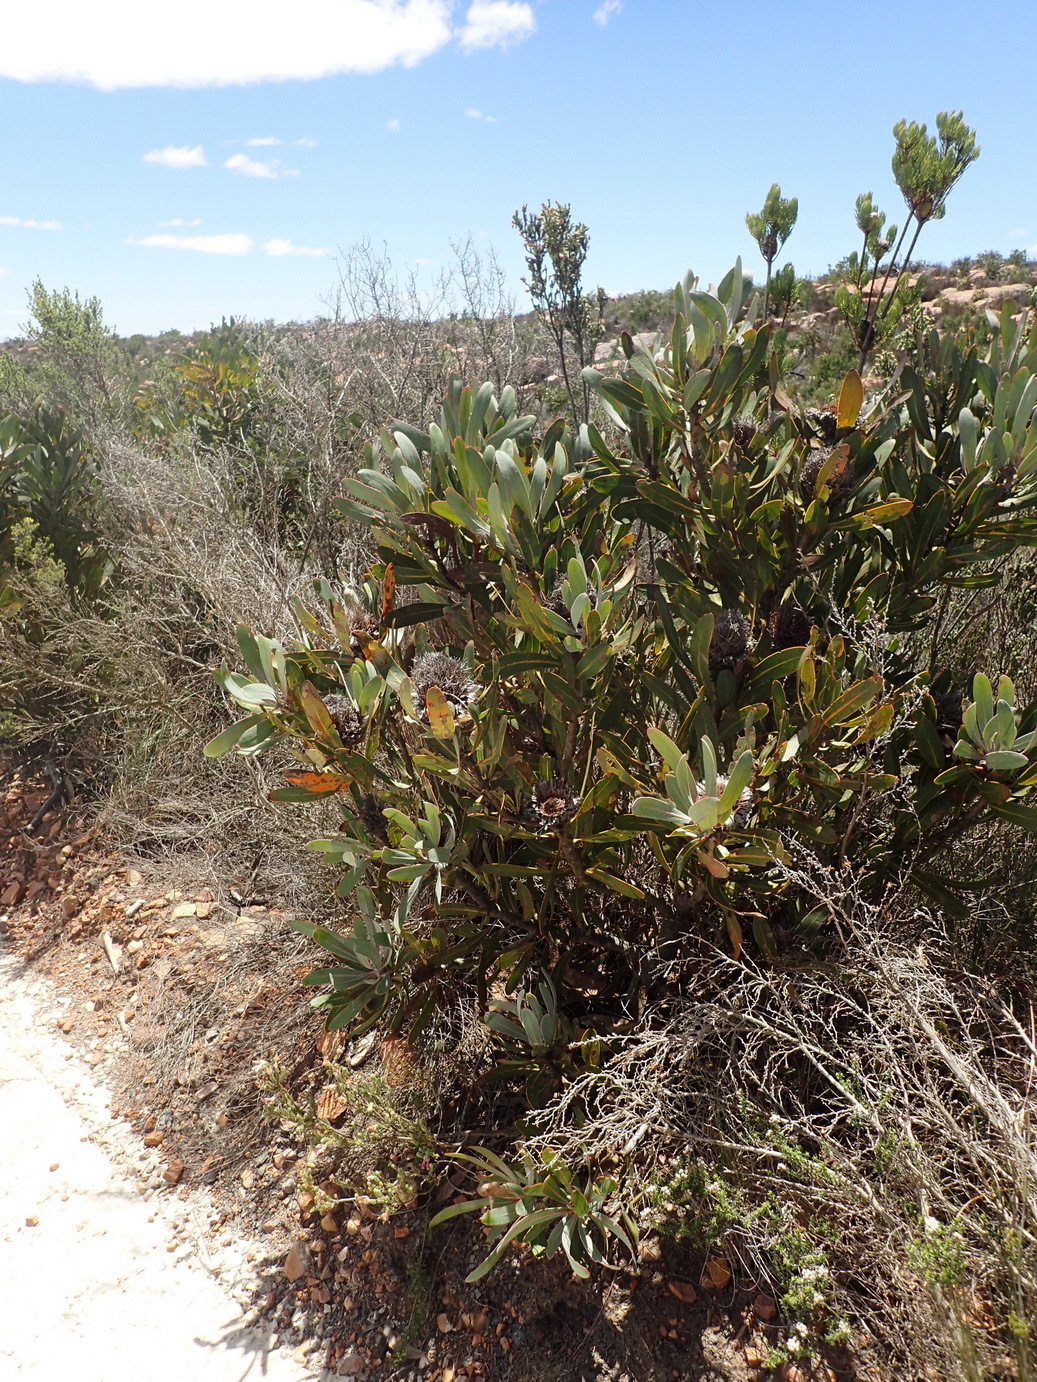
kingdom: Plantae
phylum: Tracheophyta
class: Magnoliopsida
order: Proteales
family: Proteaceae
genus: Protea
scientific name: Protea lorifolia
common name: Strap-leaved protea
